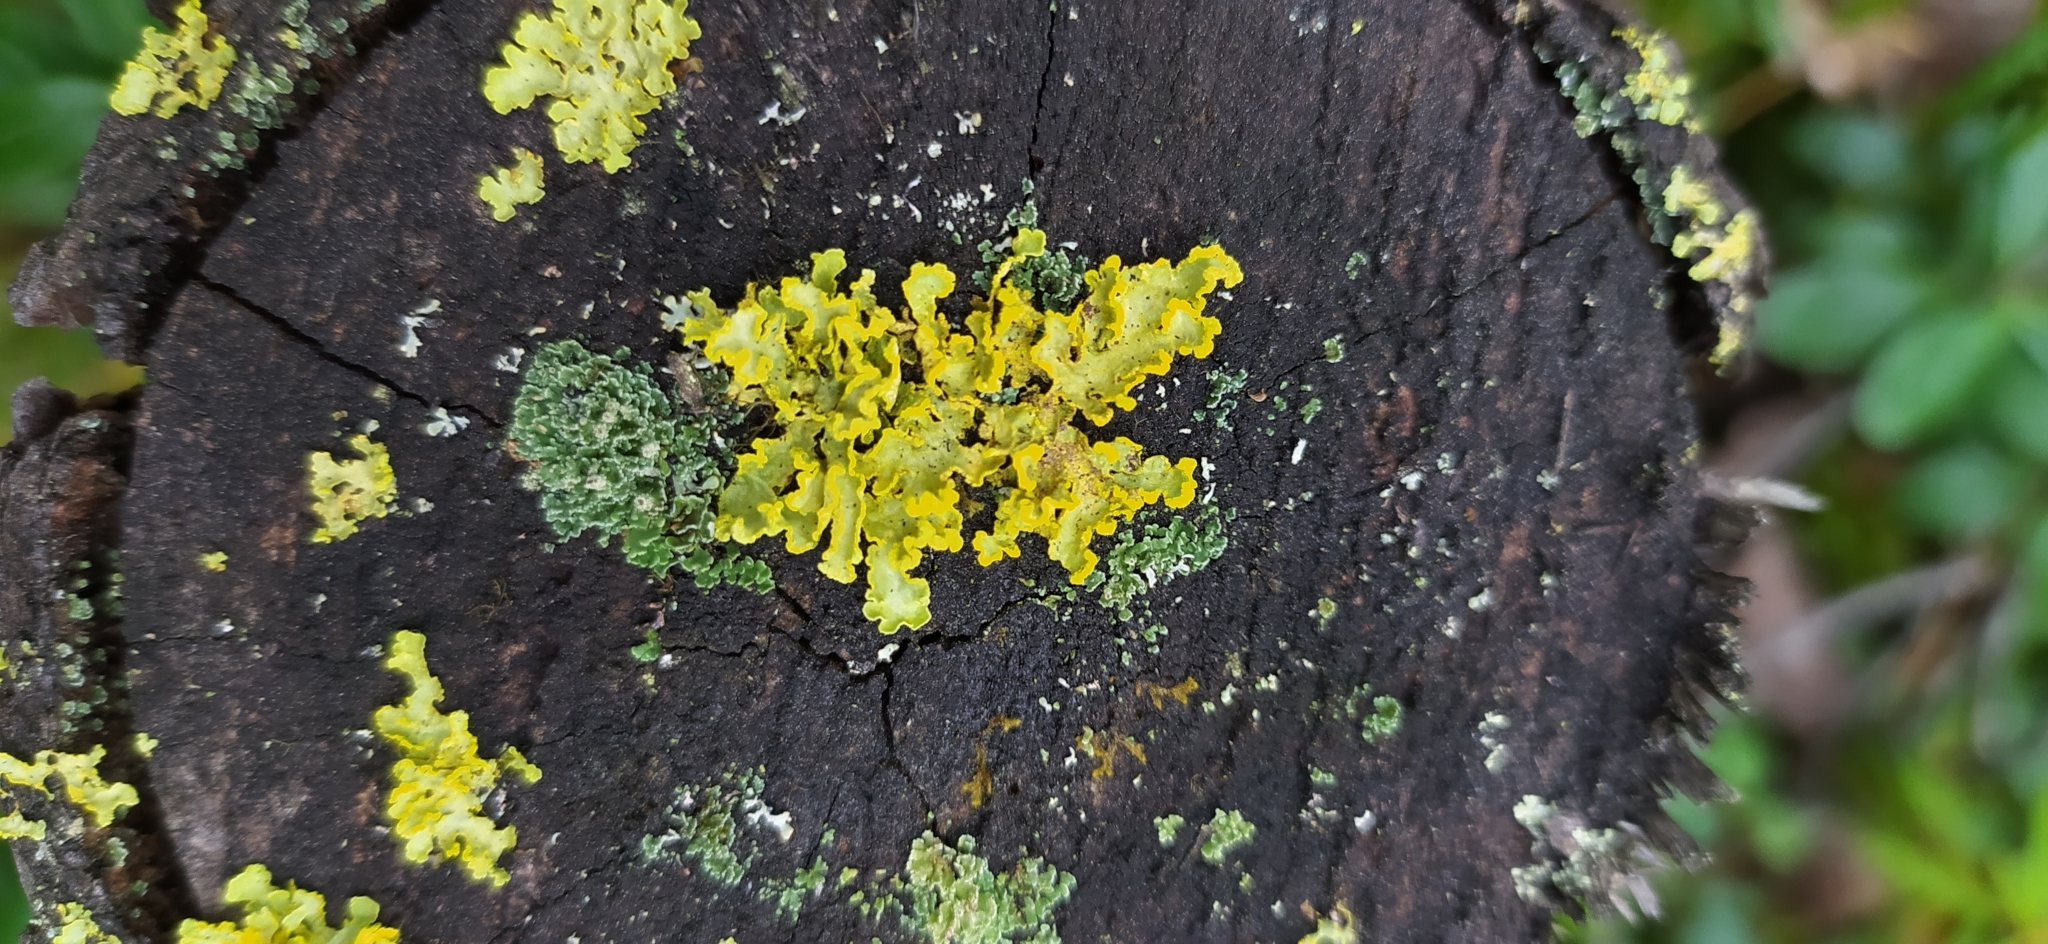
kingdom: Fungi
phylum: Ascomycota
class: Lecanoromycetes
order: Lecanorales
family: Parmeliaceae
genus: Vulpicida
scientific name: Vulpicida pinastri
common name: Powdered sunshine lichen
